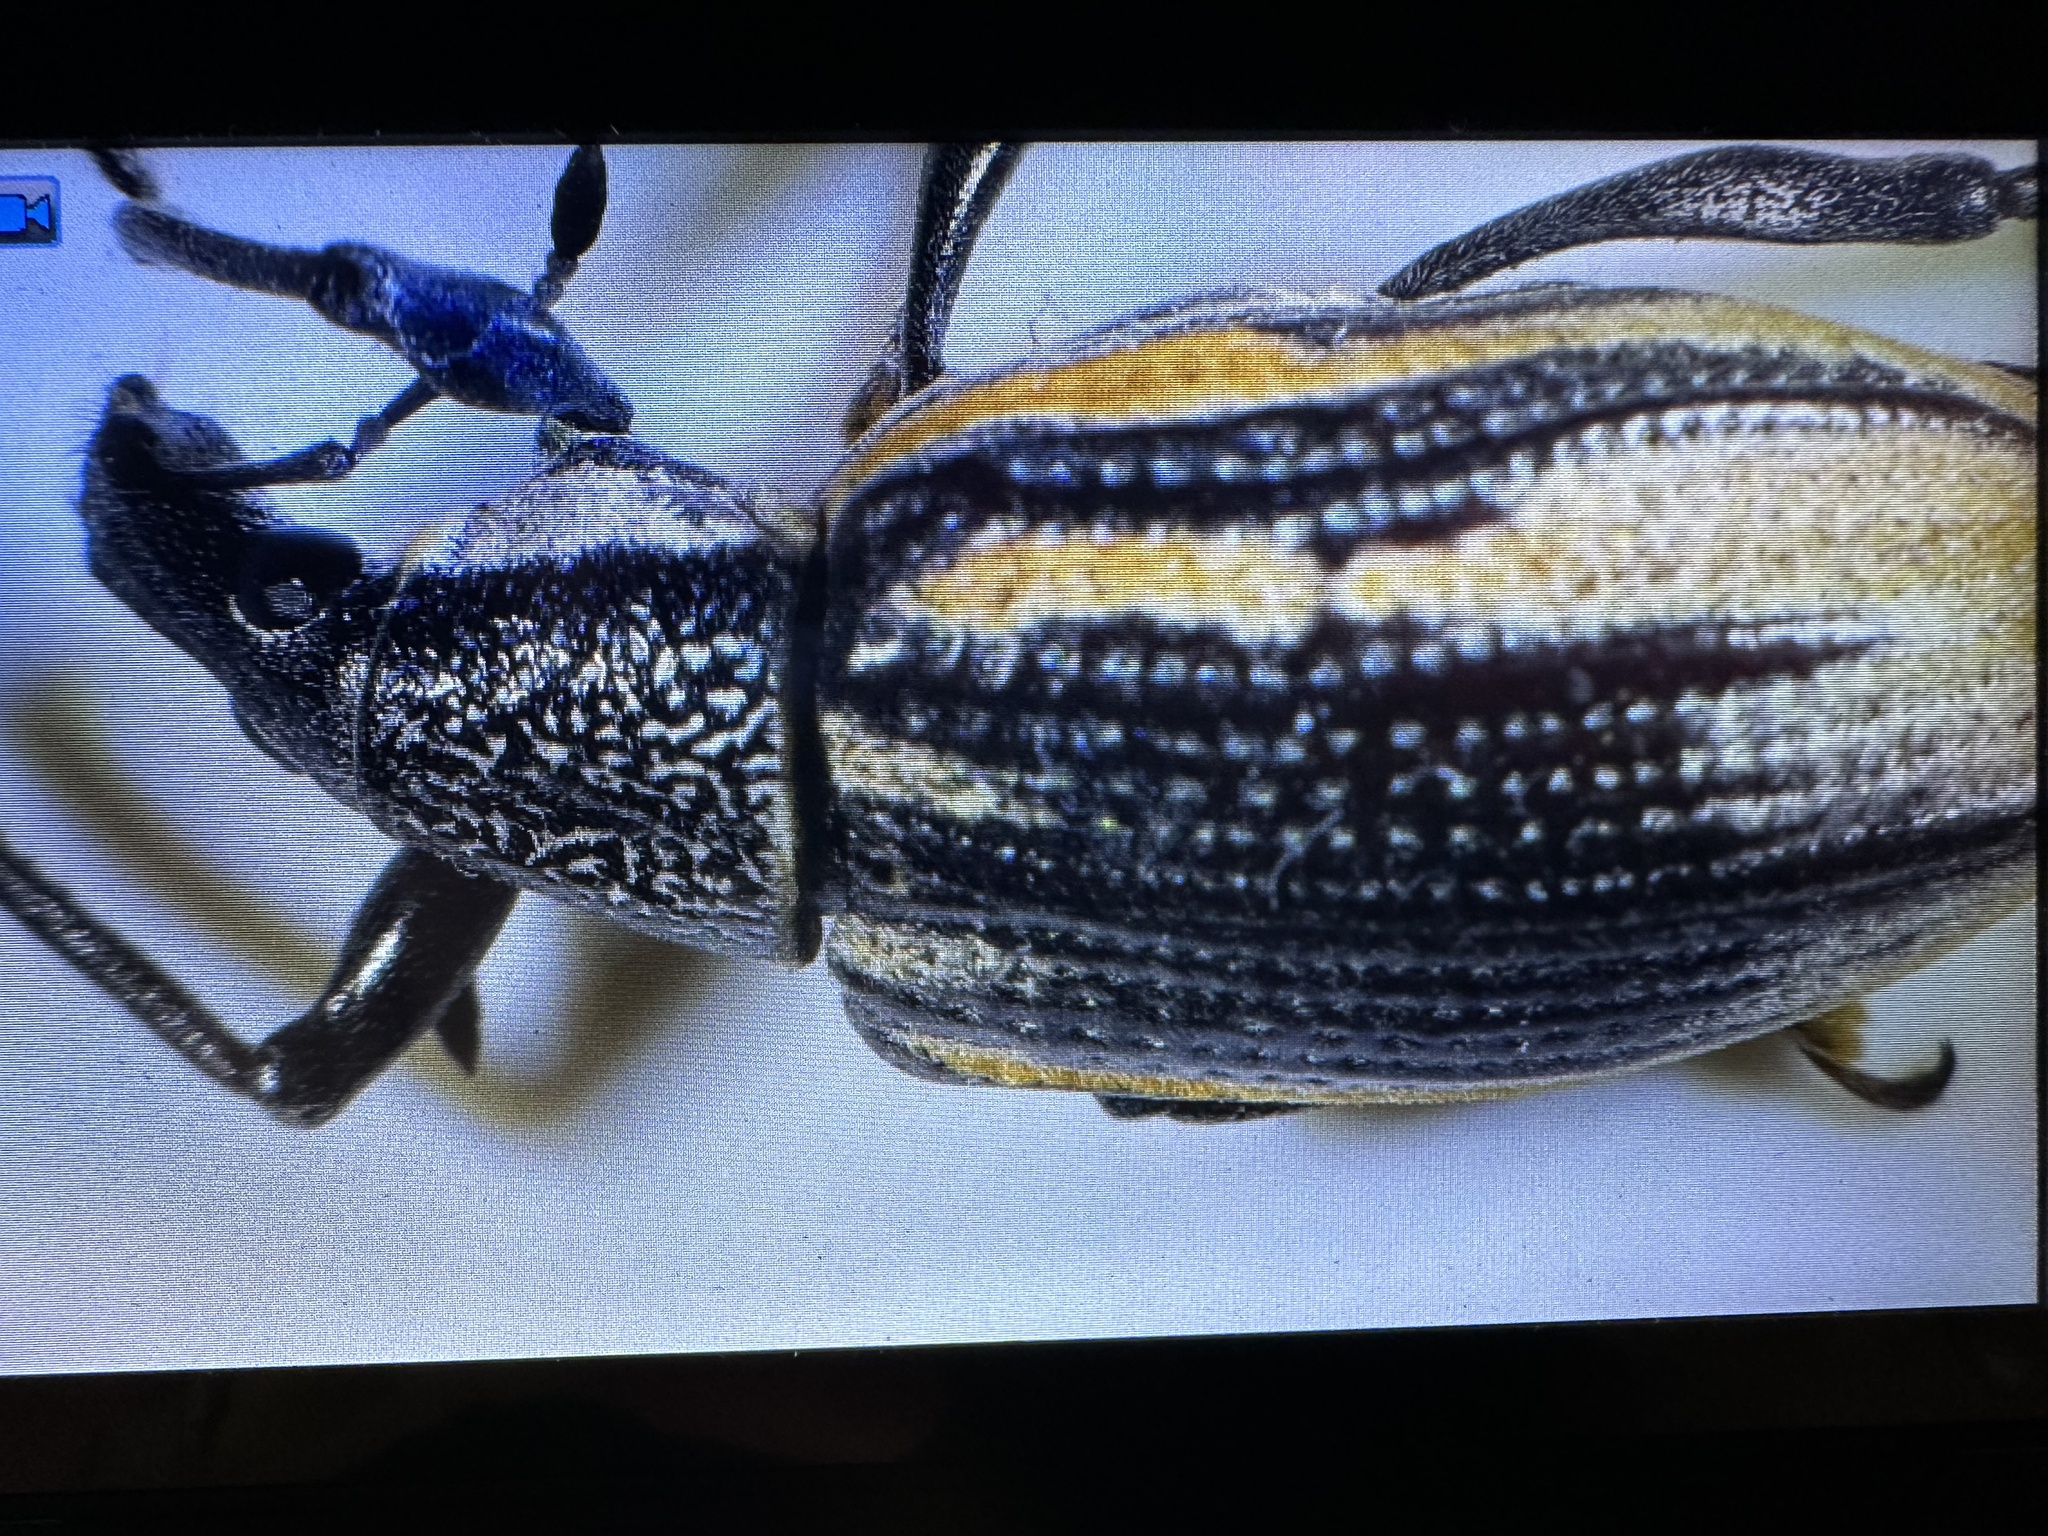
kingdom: Animalia
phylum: Arthropoda
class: Insecta
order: Coleoptera
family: Curculionidae
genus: Diaprepes
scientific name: Diaprepes abbreviatus
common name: Root weevil
